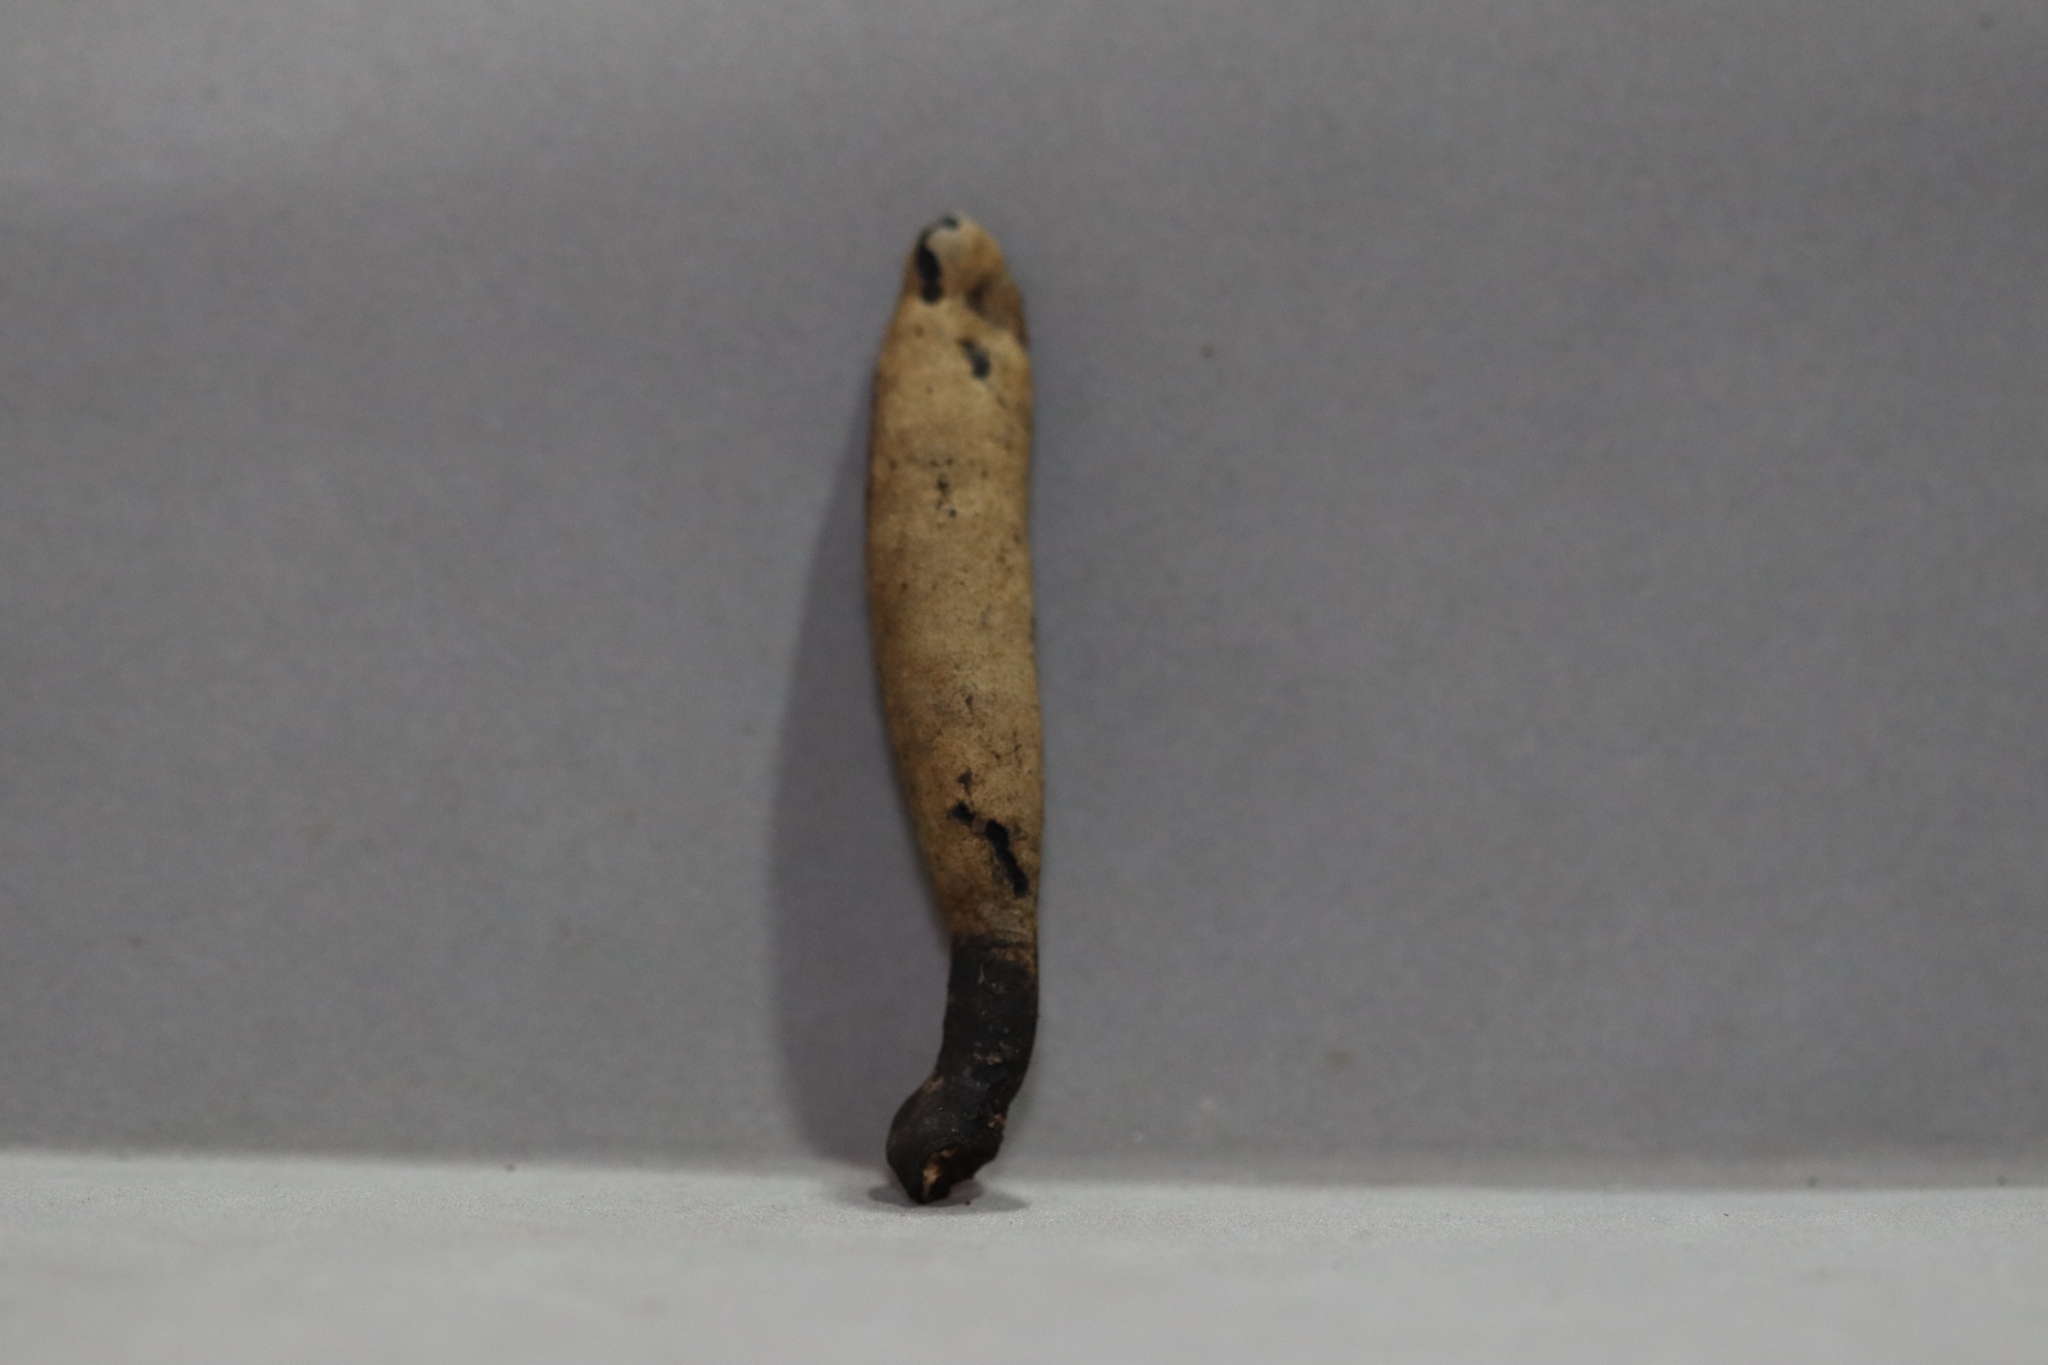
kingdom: Fungi
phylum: Ascomycota
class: Sordariomycetes
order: Xylariales
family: Xylariaceae
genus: Xylaria
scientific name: Xylaria telfairii
